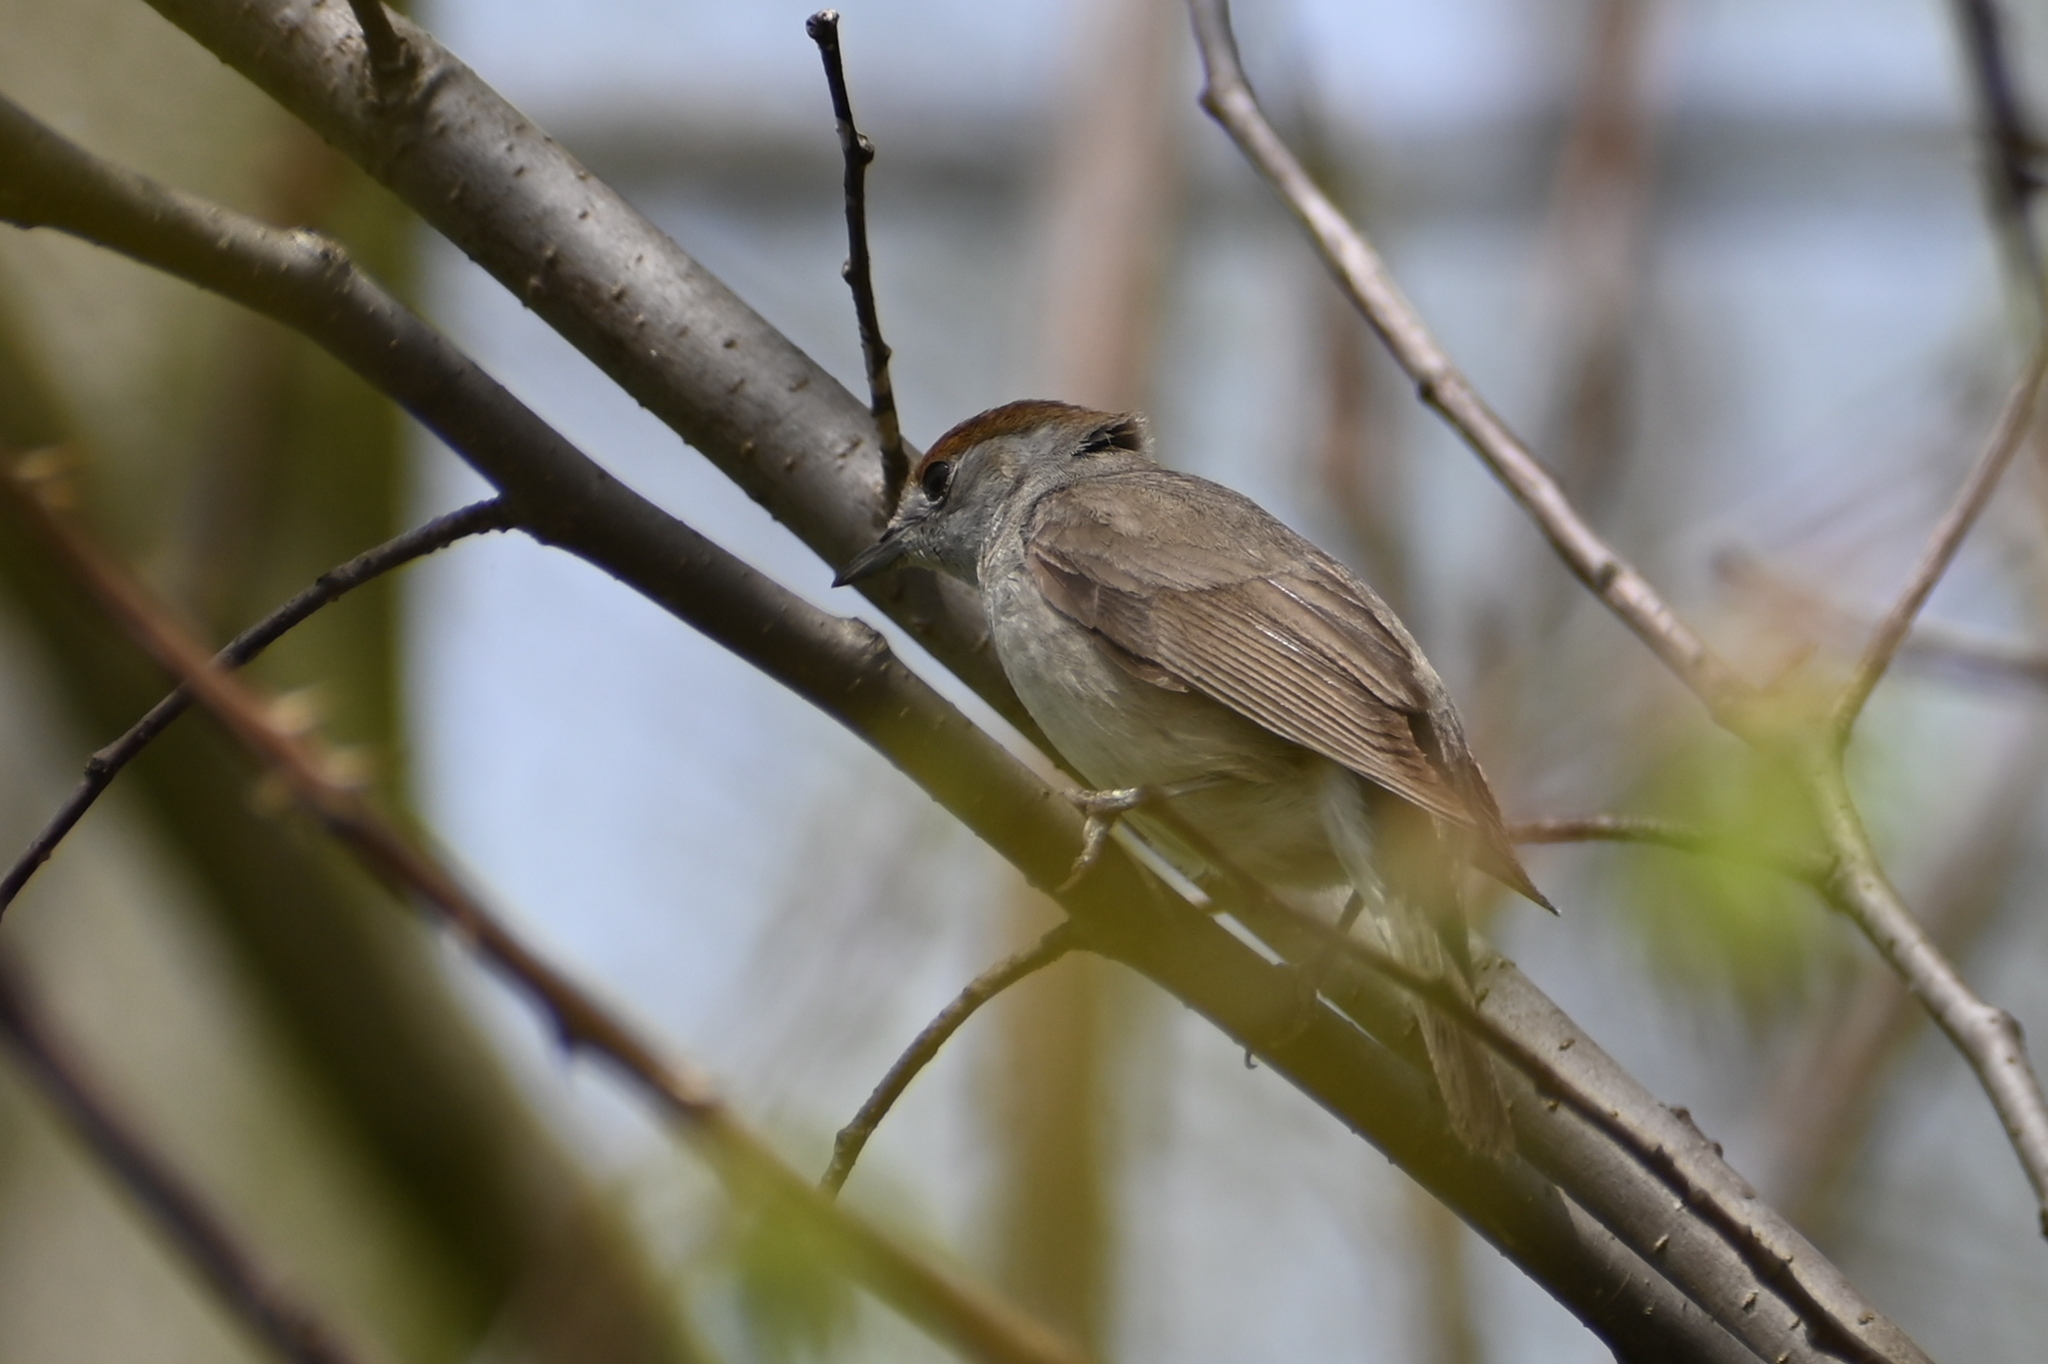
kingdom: Animalia
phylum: Chordata
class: Aves
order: Passeriformes
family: Sylviidae
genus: Sylvia
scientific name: Sylvia atricapilla
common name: Eurasian blackcap
